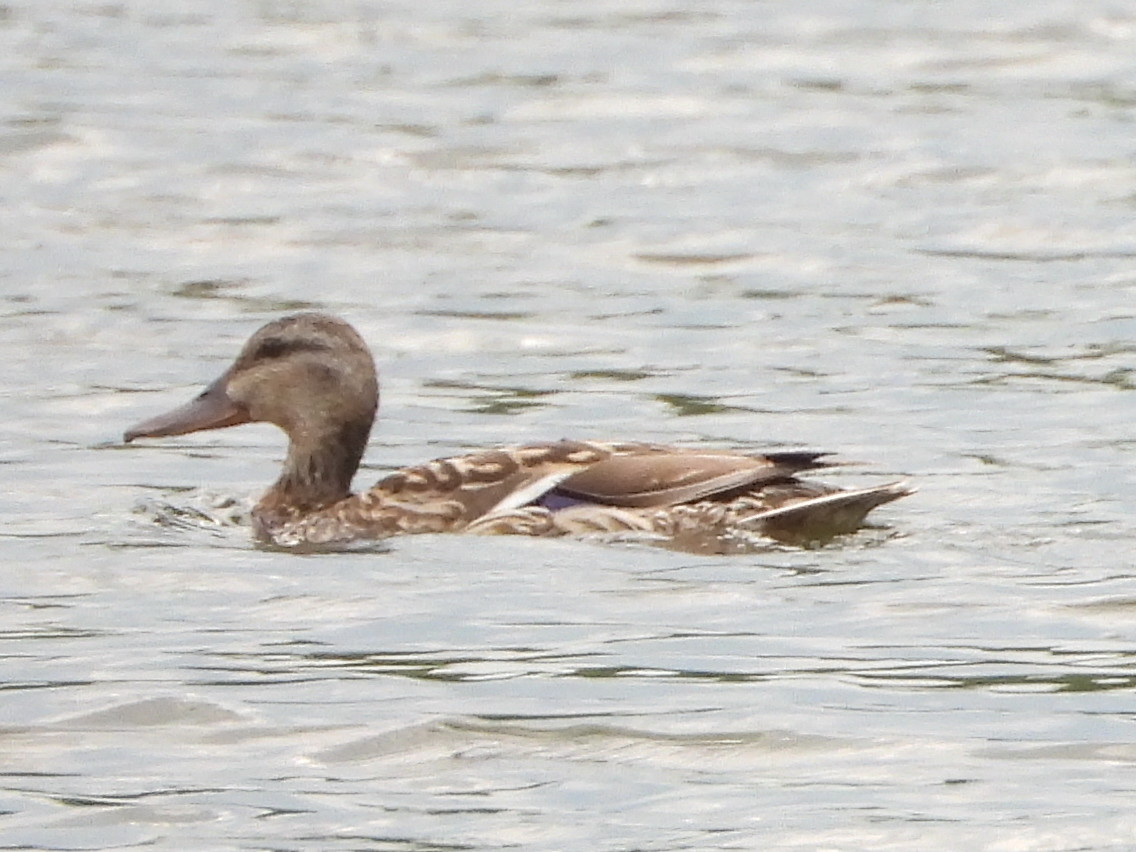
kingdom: Animalia
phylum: Chordata
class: Aves
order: Anseriformes
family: Anatidae
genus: Anas
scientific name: Anas platyrhynchos
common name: Mallard
